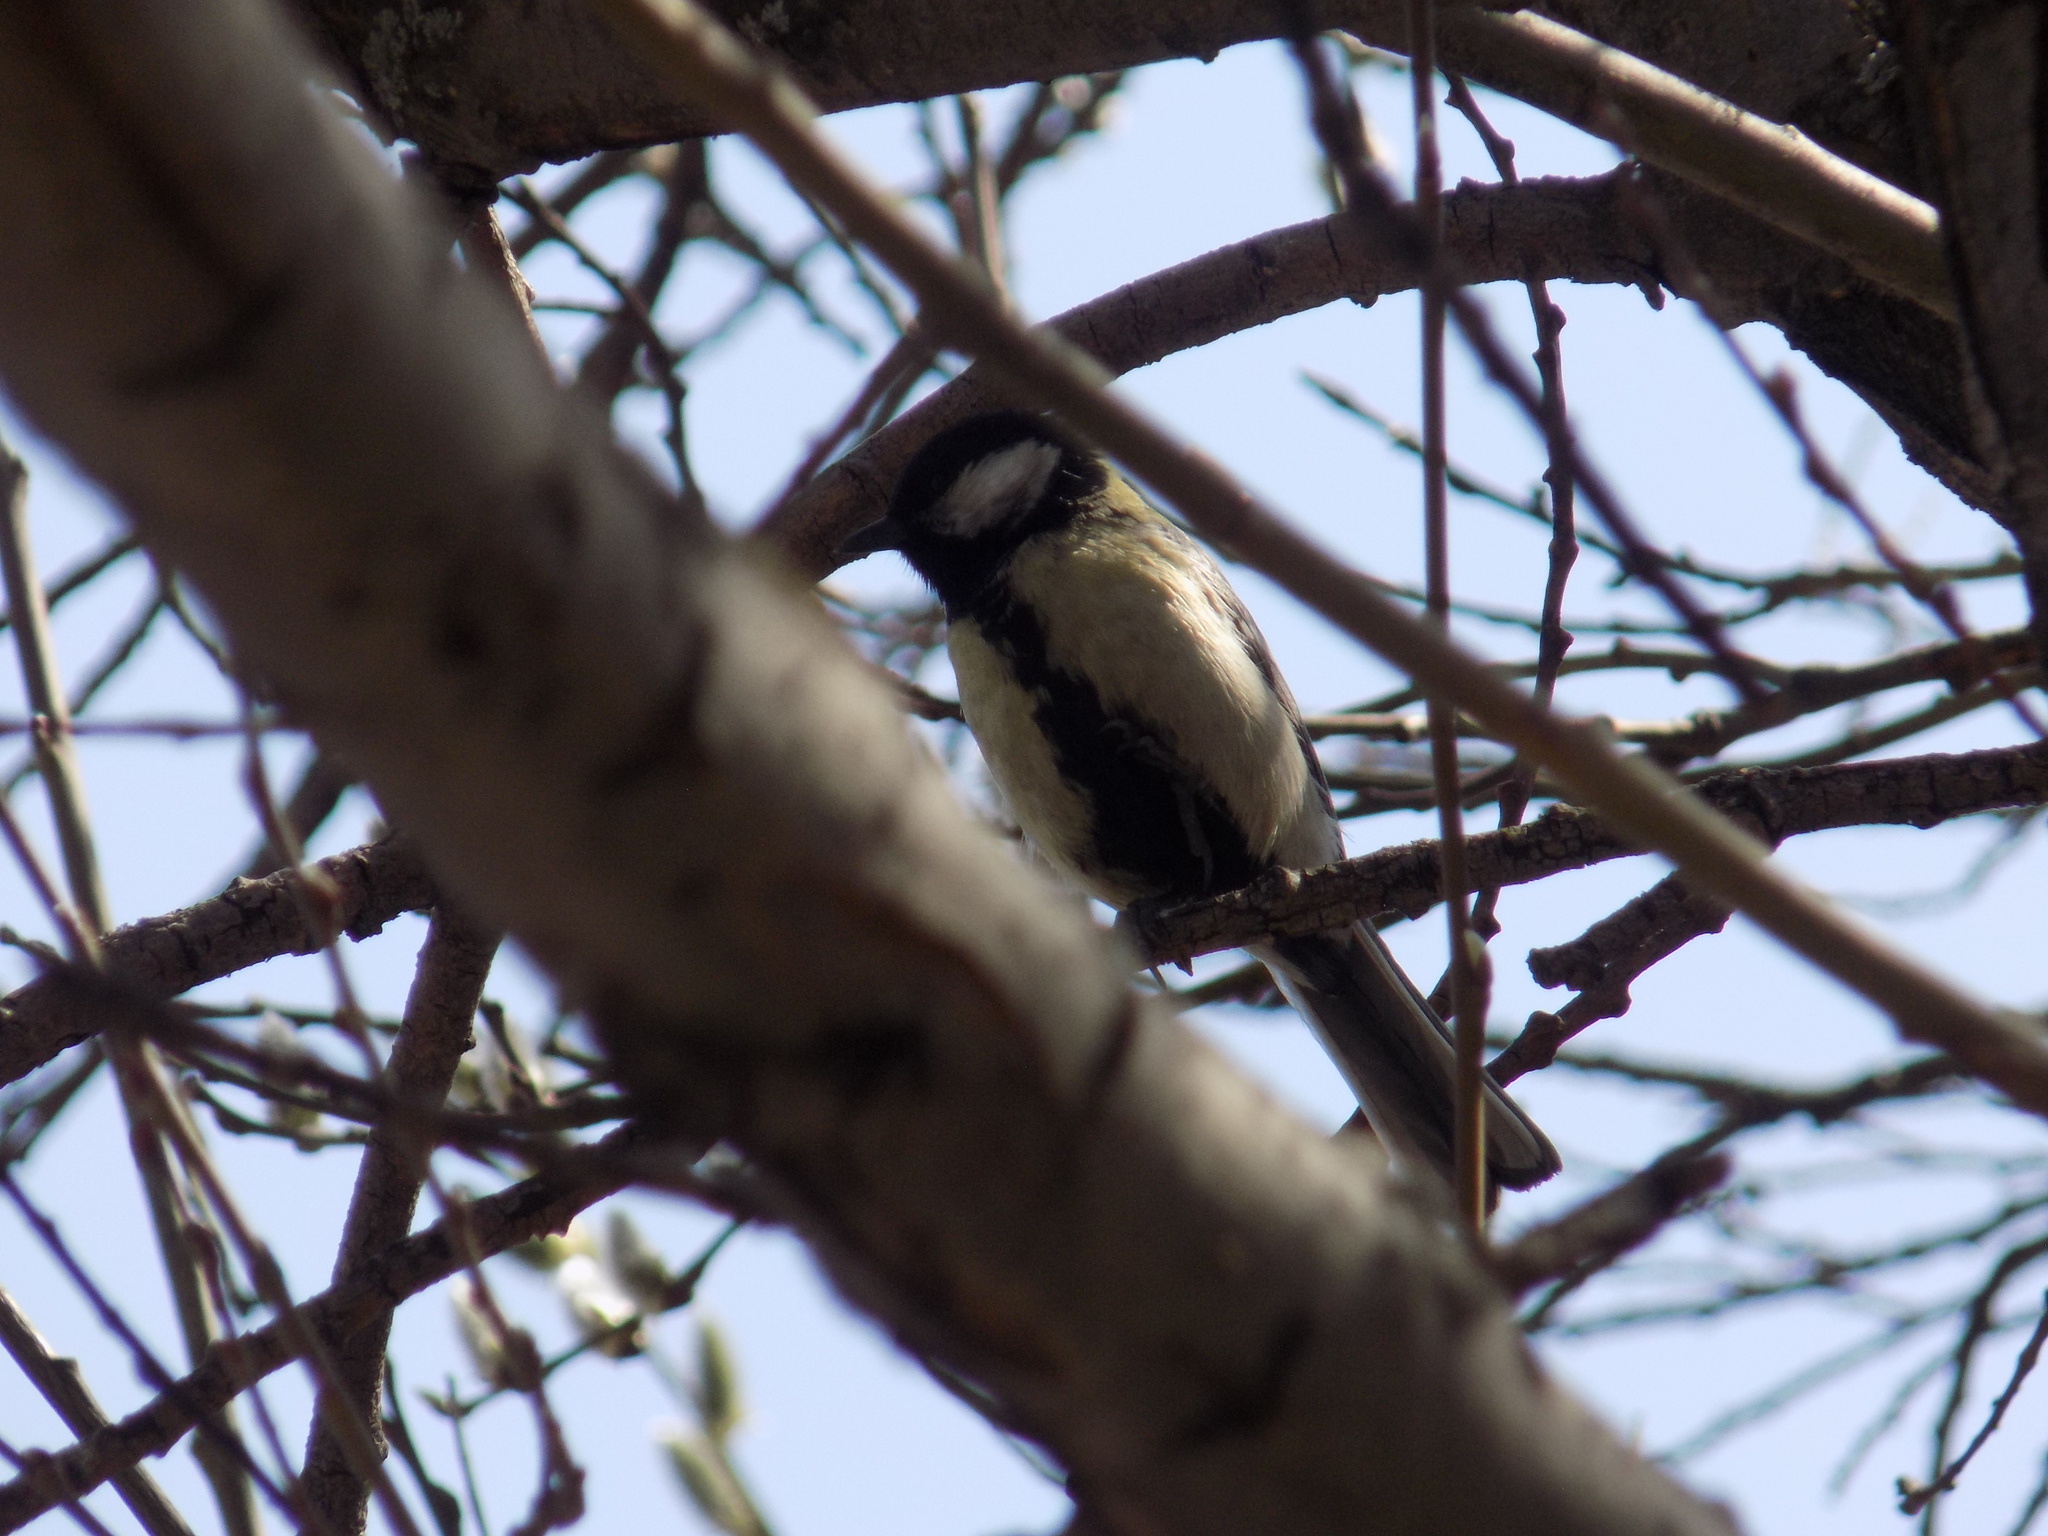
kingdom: Animalia
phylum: Chordata
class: Aves
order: Passeriformes
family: Paridae
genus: Parus
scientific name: Parus major
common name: Great tit
